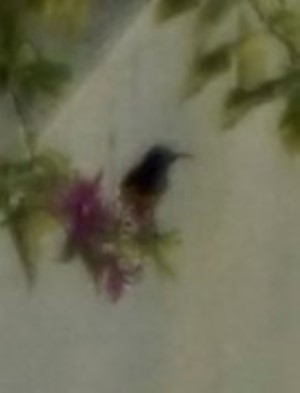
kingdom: Animalia
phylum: Chordata
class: Aves
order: Passeriformes
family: Nectariniidae
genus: Cinnyris
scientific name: Cinnyris
